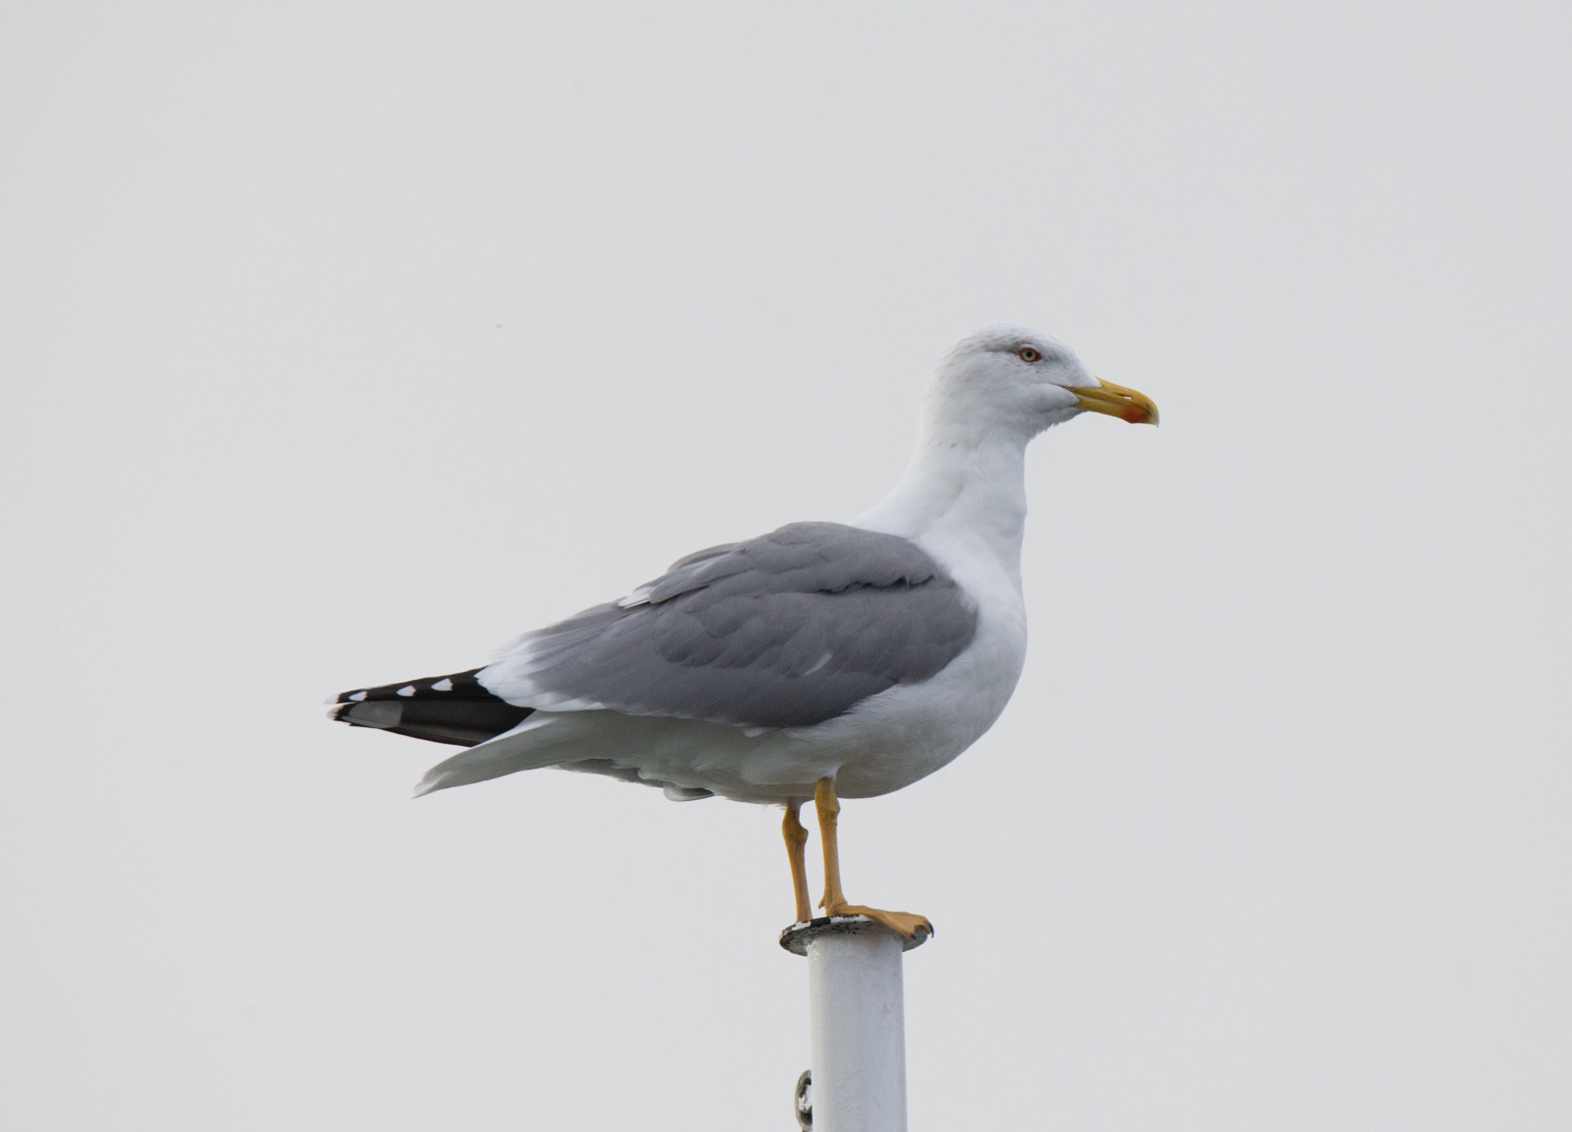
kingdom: Animalia
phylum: Chordata
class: Aves
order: Charadriiformes
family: Laridae
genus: Larus
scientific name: Larus michahellis
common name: Yellow-legged gull
